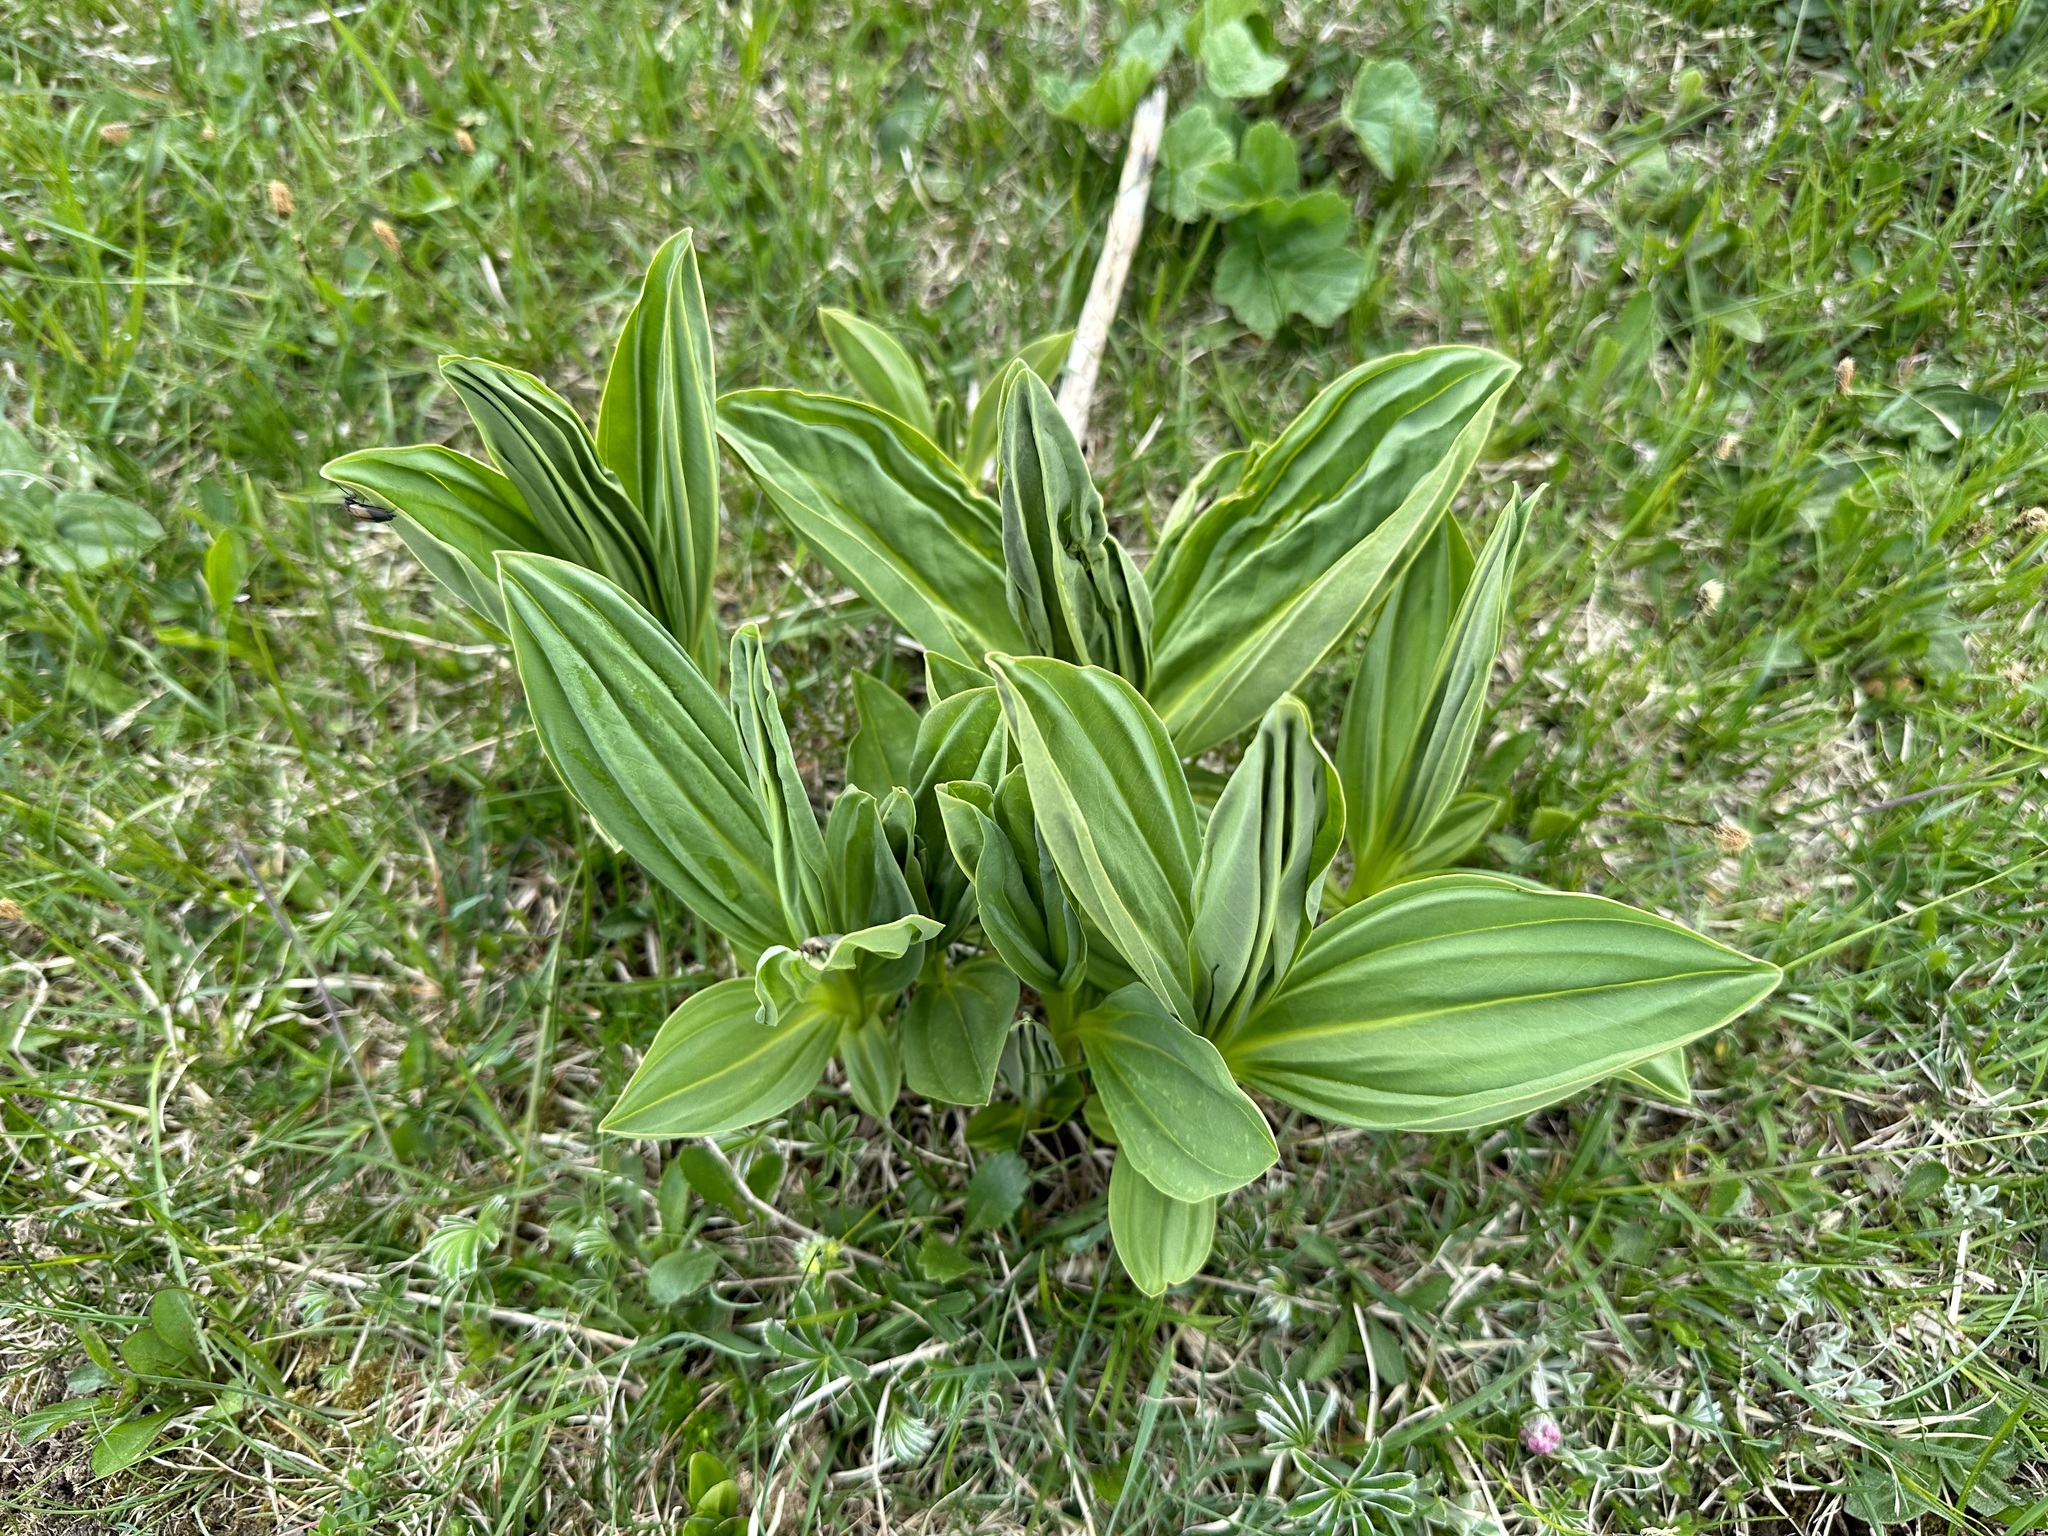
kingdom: Plantae
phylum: Tracheophyta
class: Magnoliopsida
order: Gentianales
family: Gentianaceae
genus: Gentiana
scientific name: Gentiana lutea
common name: Great yellow gentian
